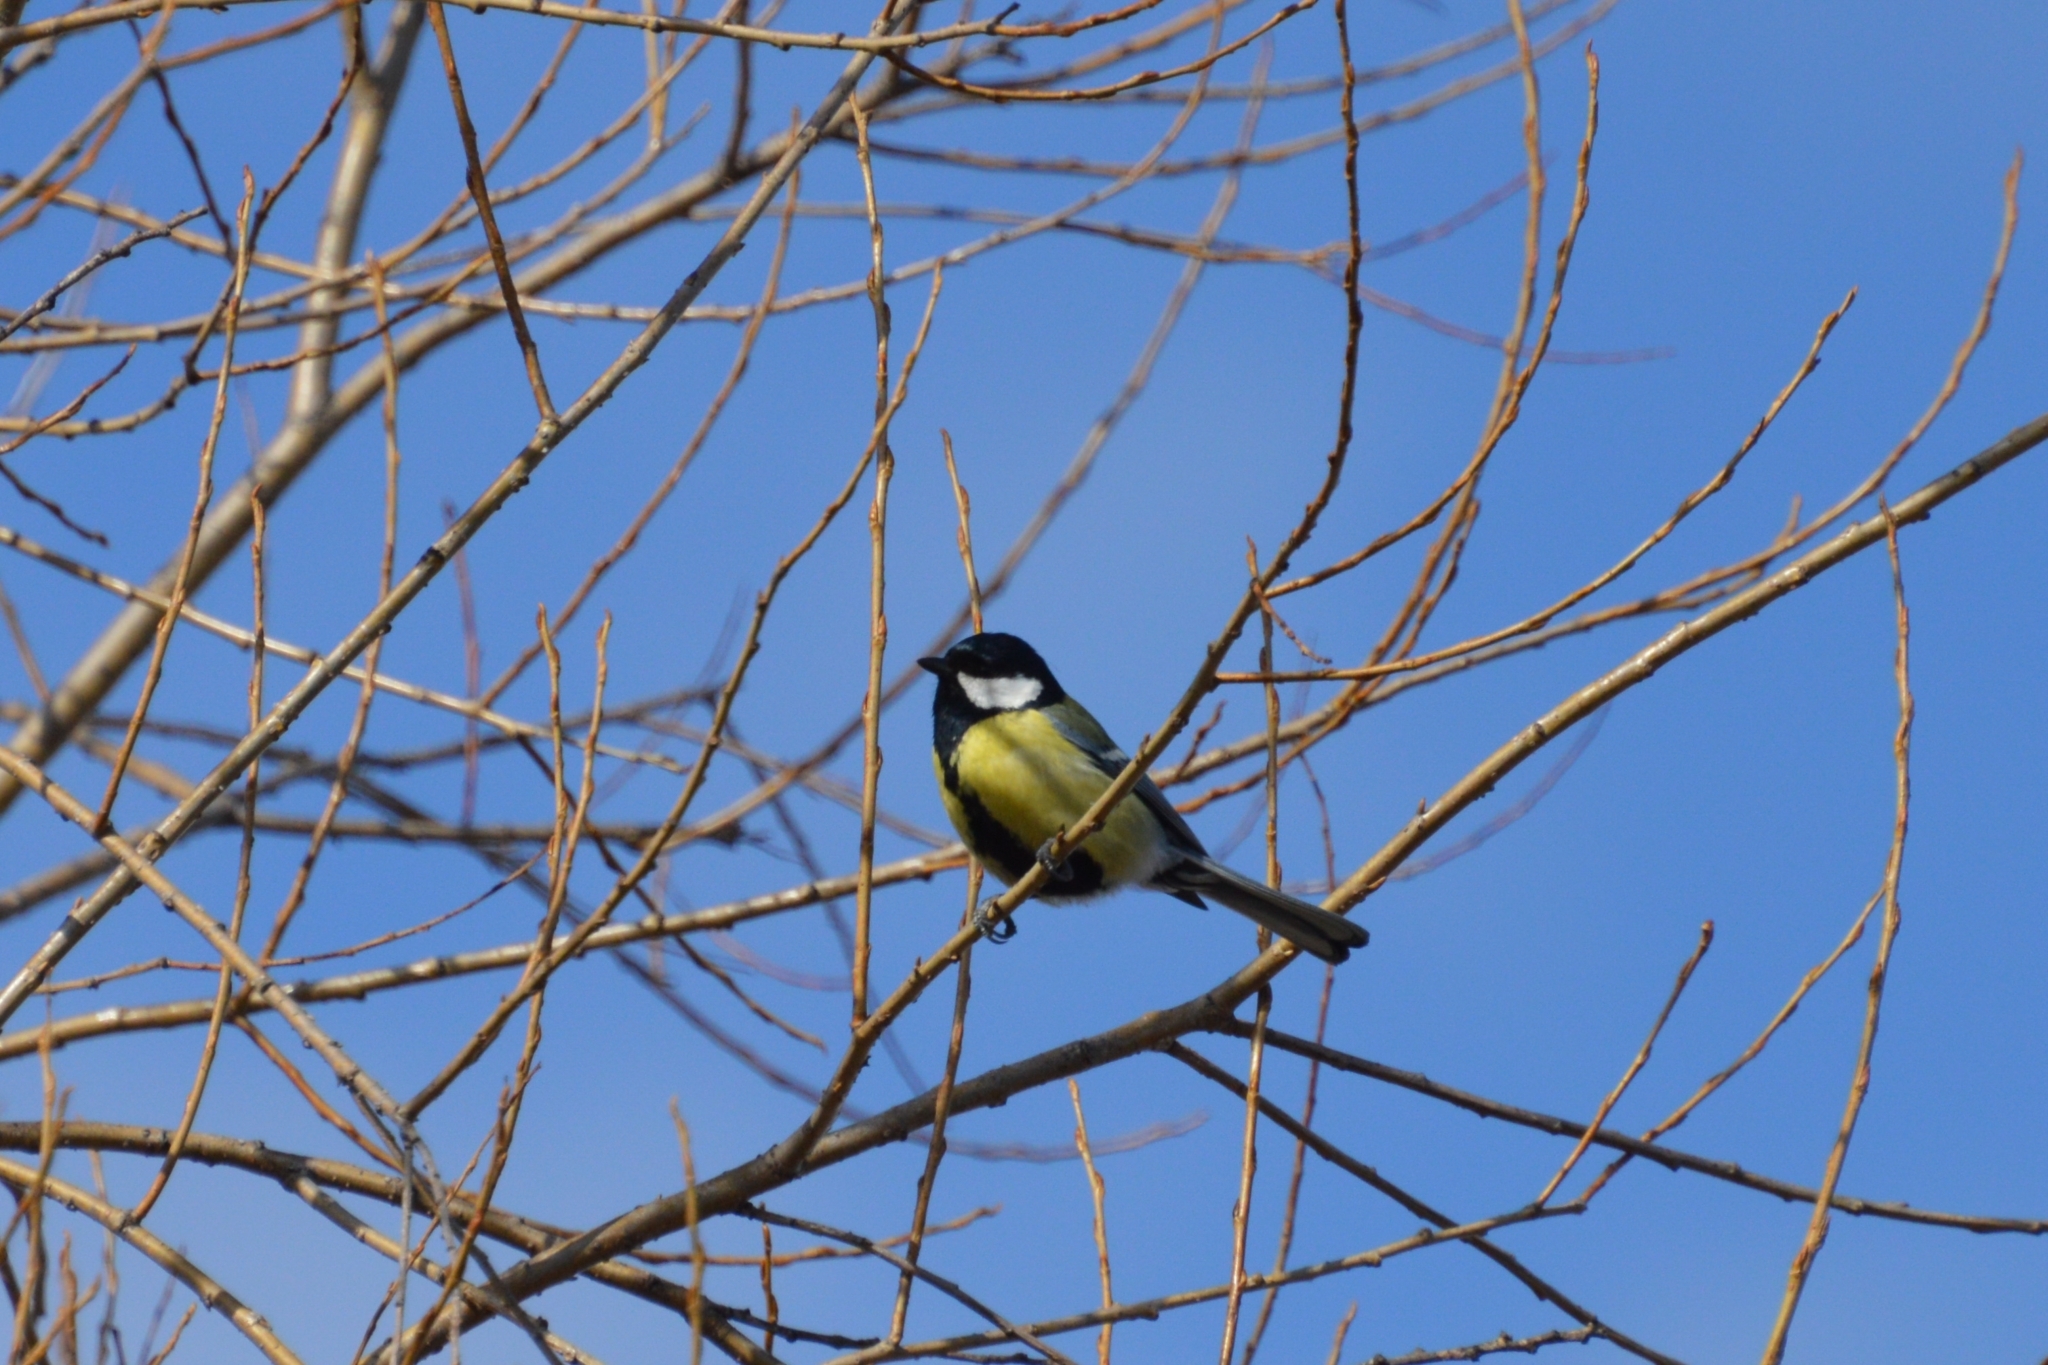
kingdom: Animalia
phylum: Chordata
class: Aves
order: Passeriformes
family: Paridae
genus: Parus
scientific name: Parus major
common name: Great tit
